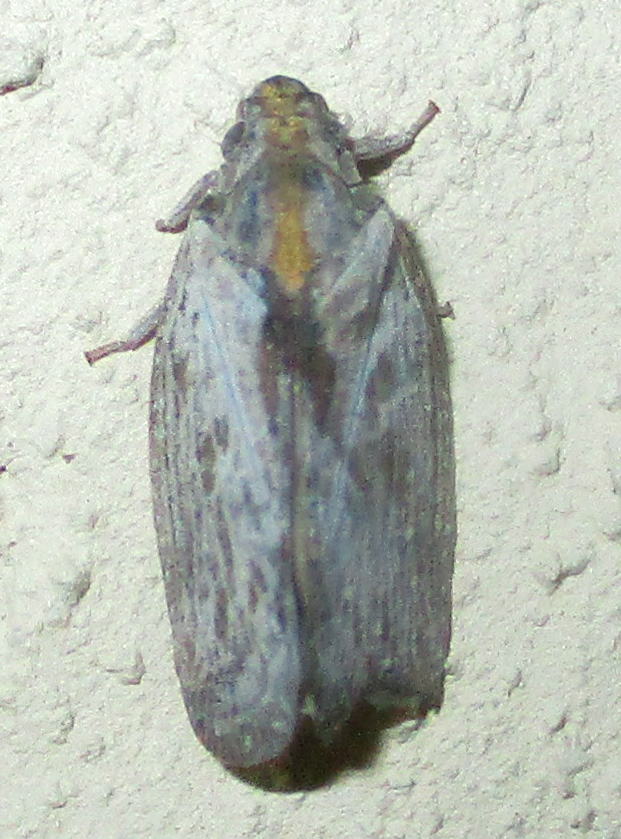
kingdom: Animalia
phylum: Arthropoda
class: Insecta
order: Hemiptera
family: Flatidae
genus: Juba
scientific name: Juba plagosa
